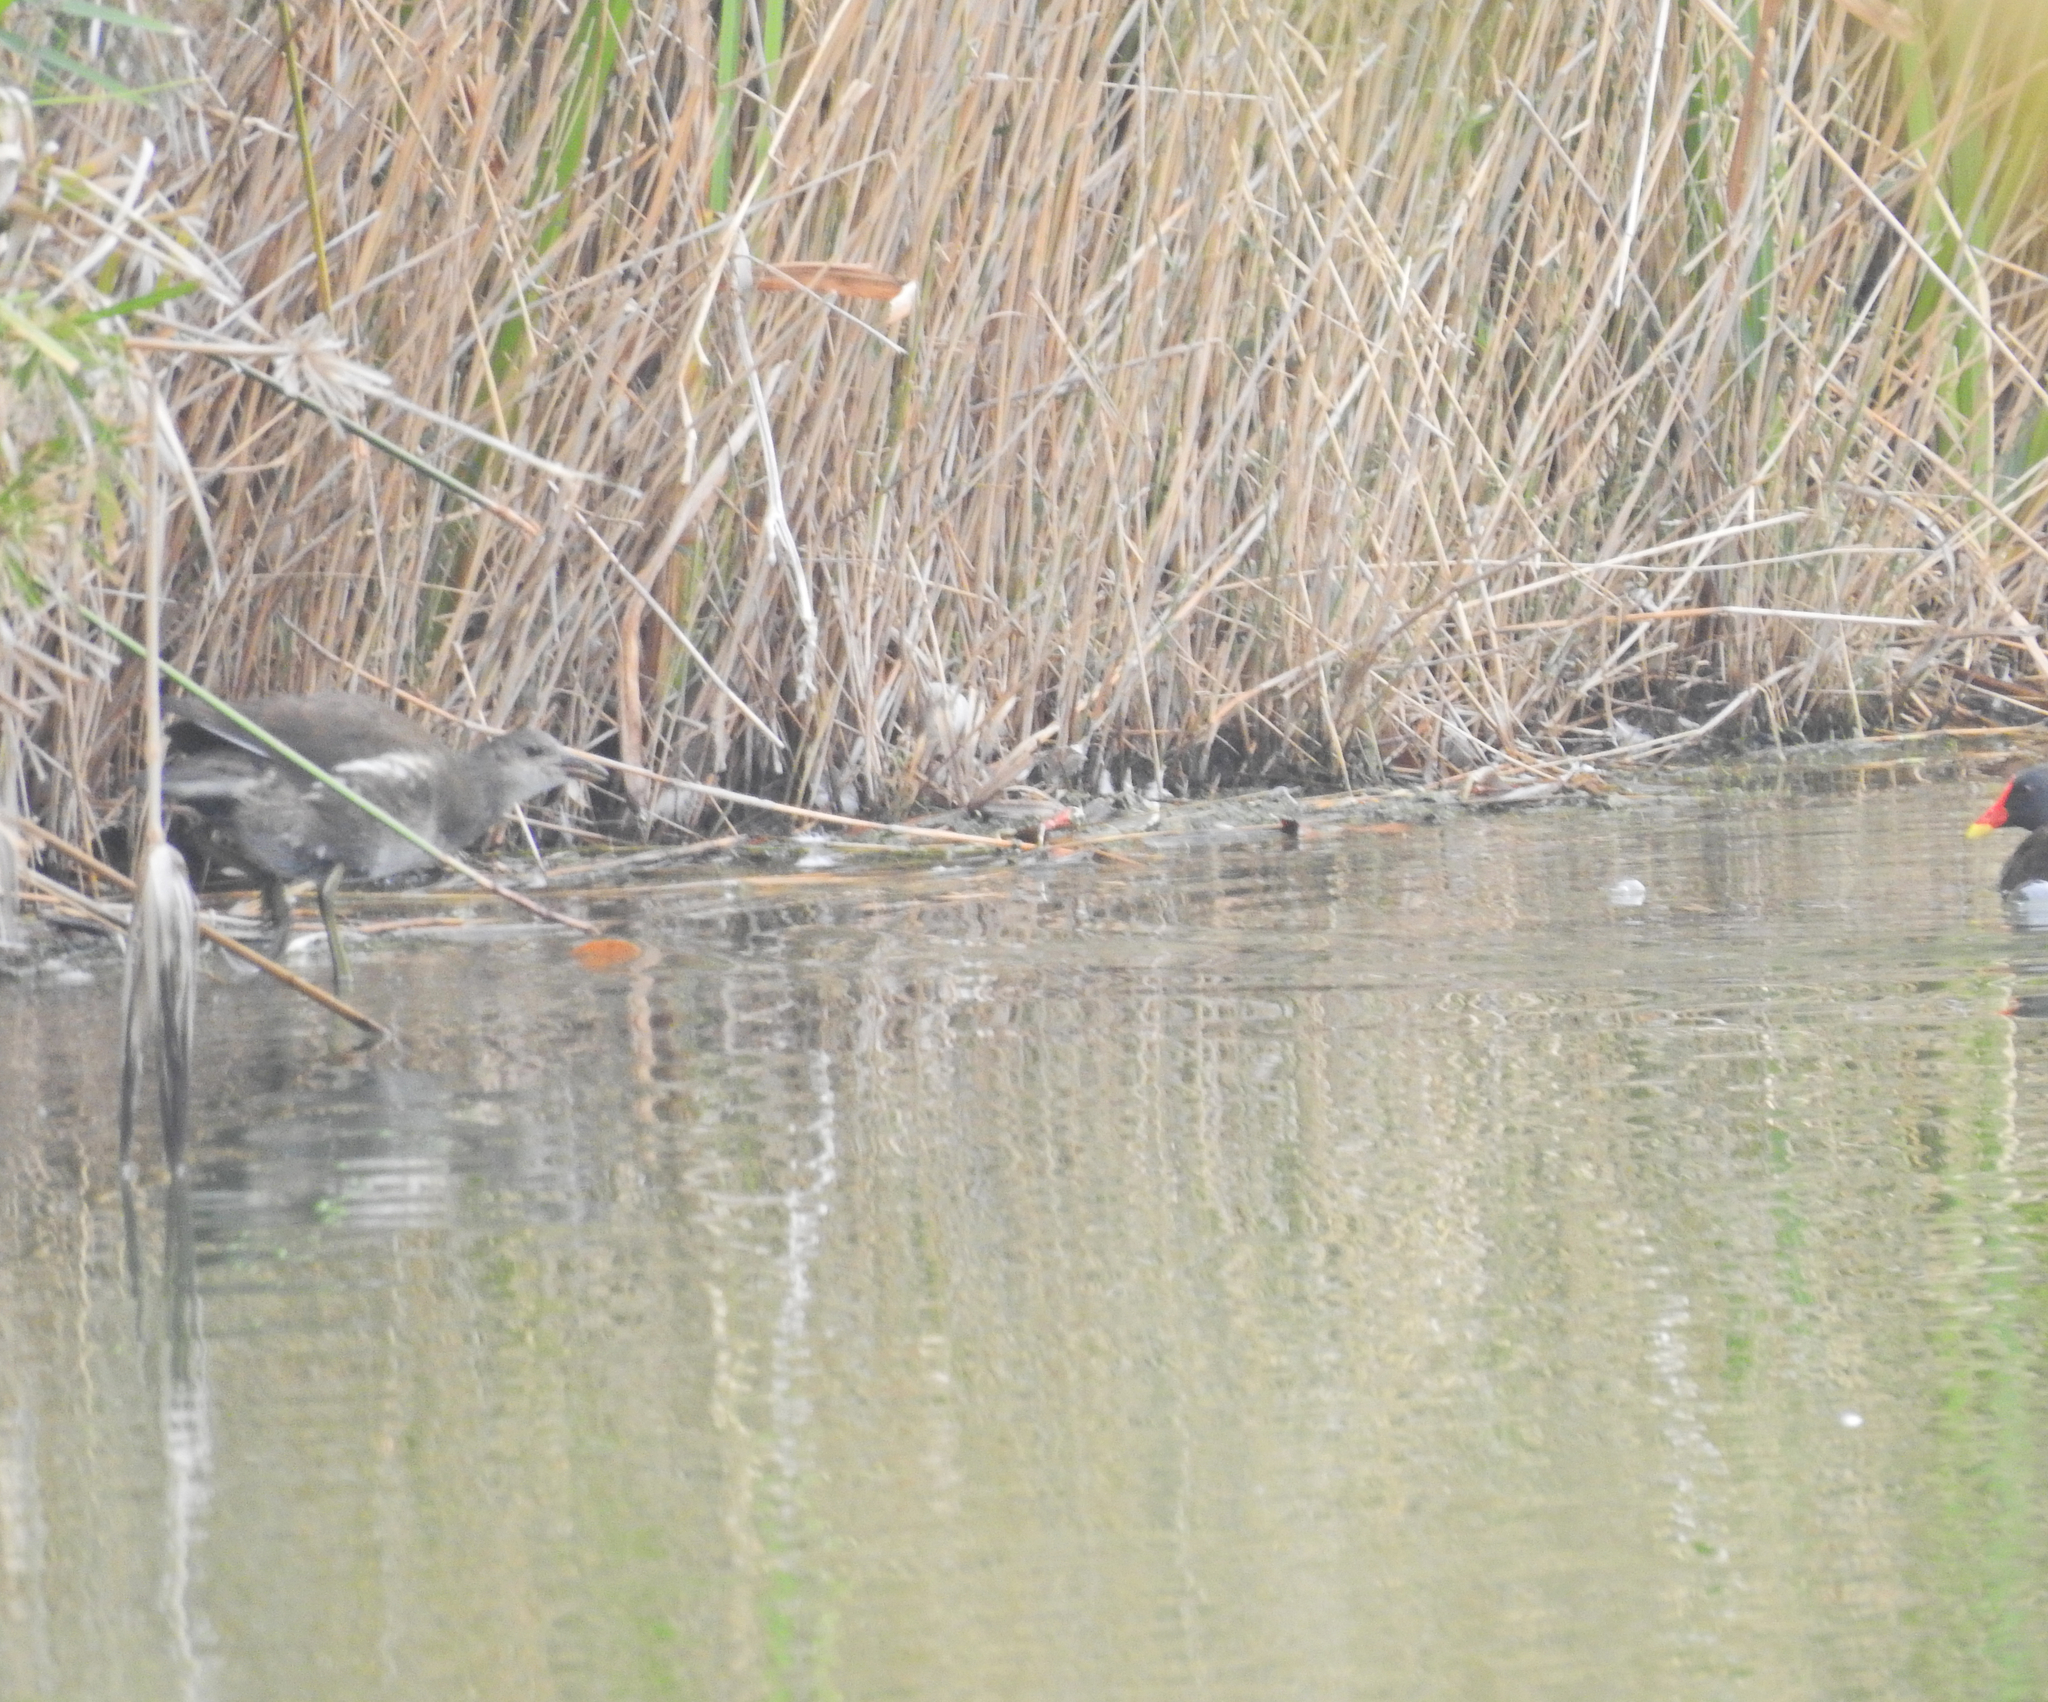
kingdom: Animalia
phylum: Chordata
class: Aves
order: Gruiformes
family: Rallidae
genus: Gallinula
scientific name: Gallinula chloropus
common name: Common moorhen
